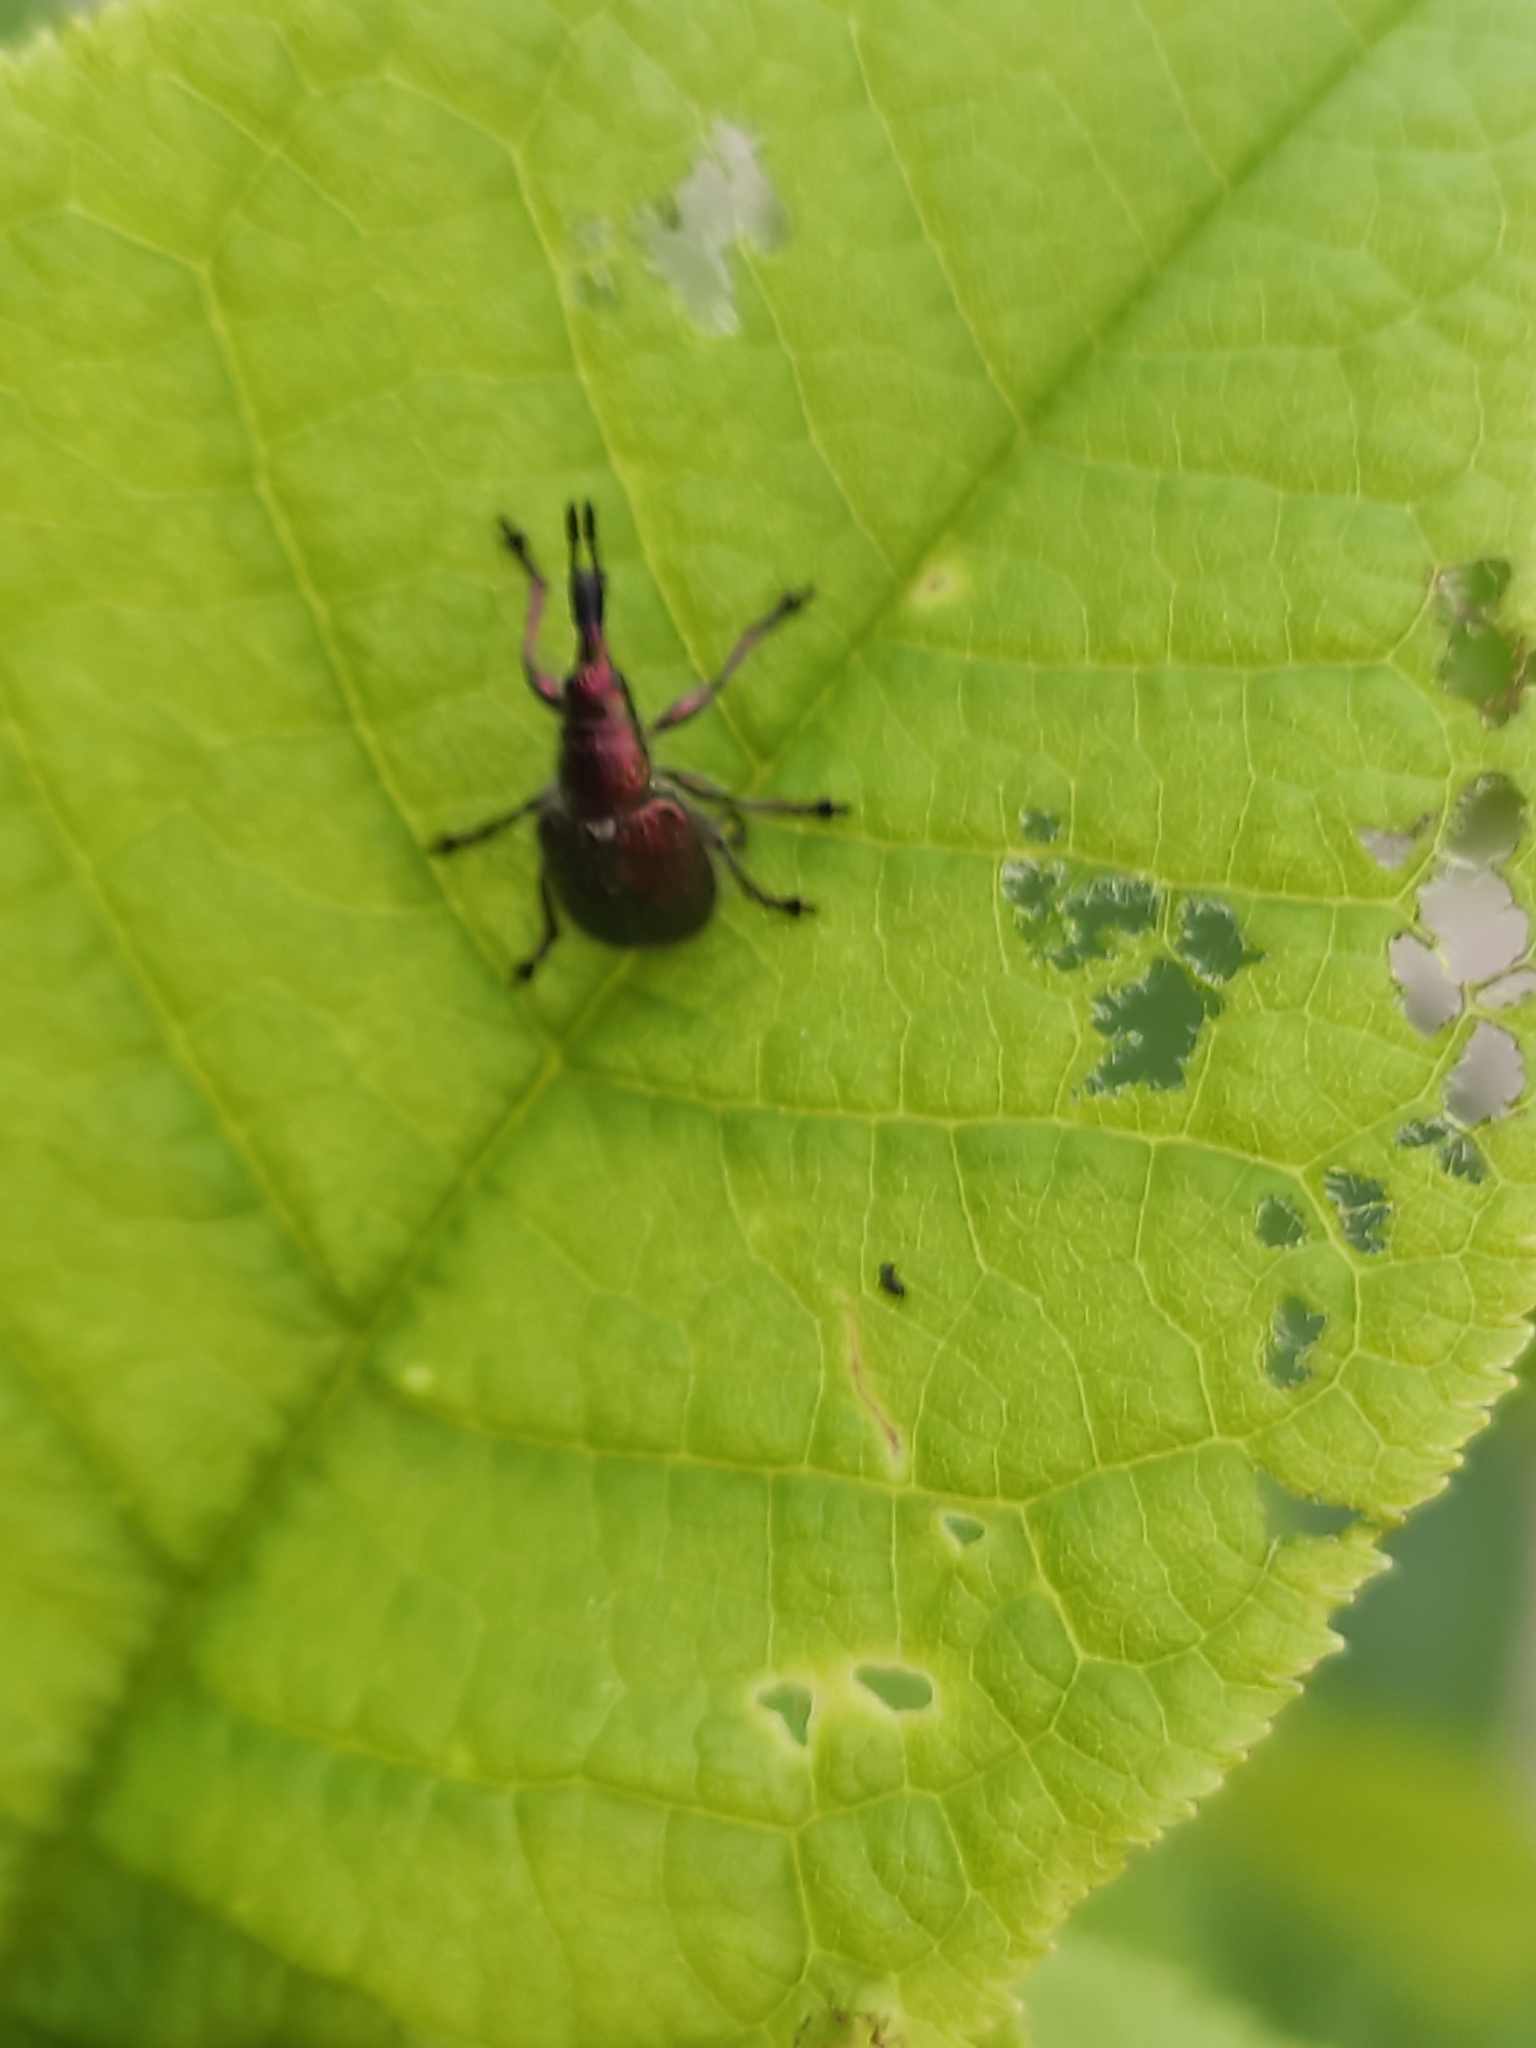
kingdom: Animalia
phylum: Arthropoda
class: Insecta
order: Coleoptera
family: Attelabidae
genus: Rhynchites
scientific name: Rhynchites auratus
